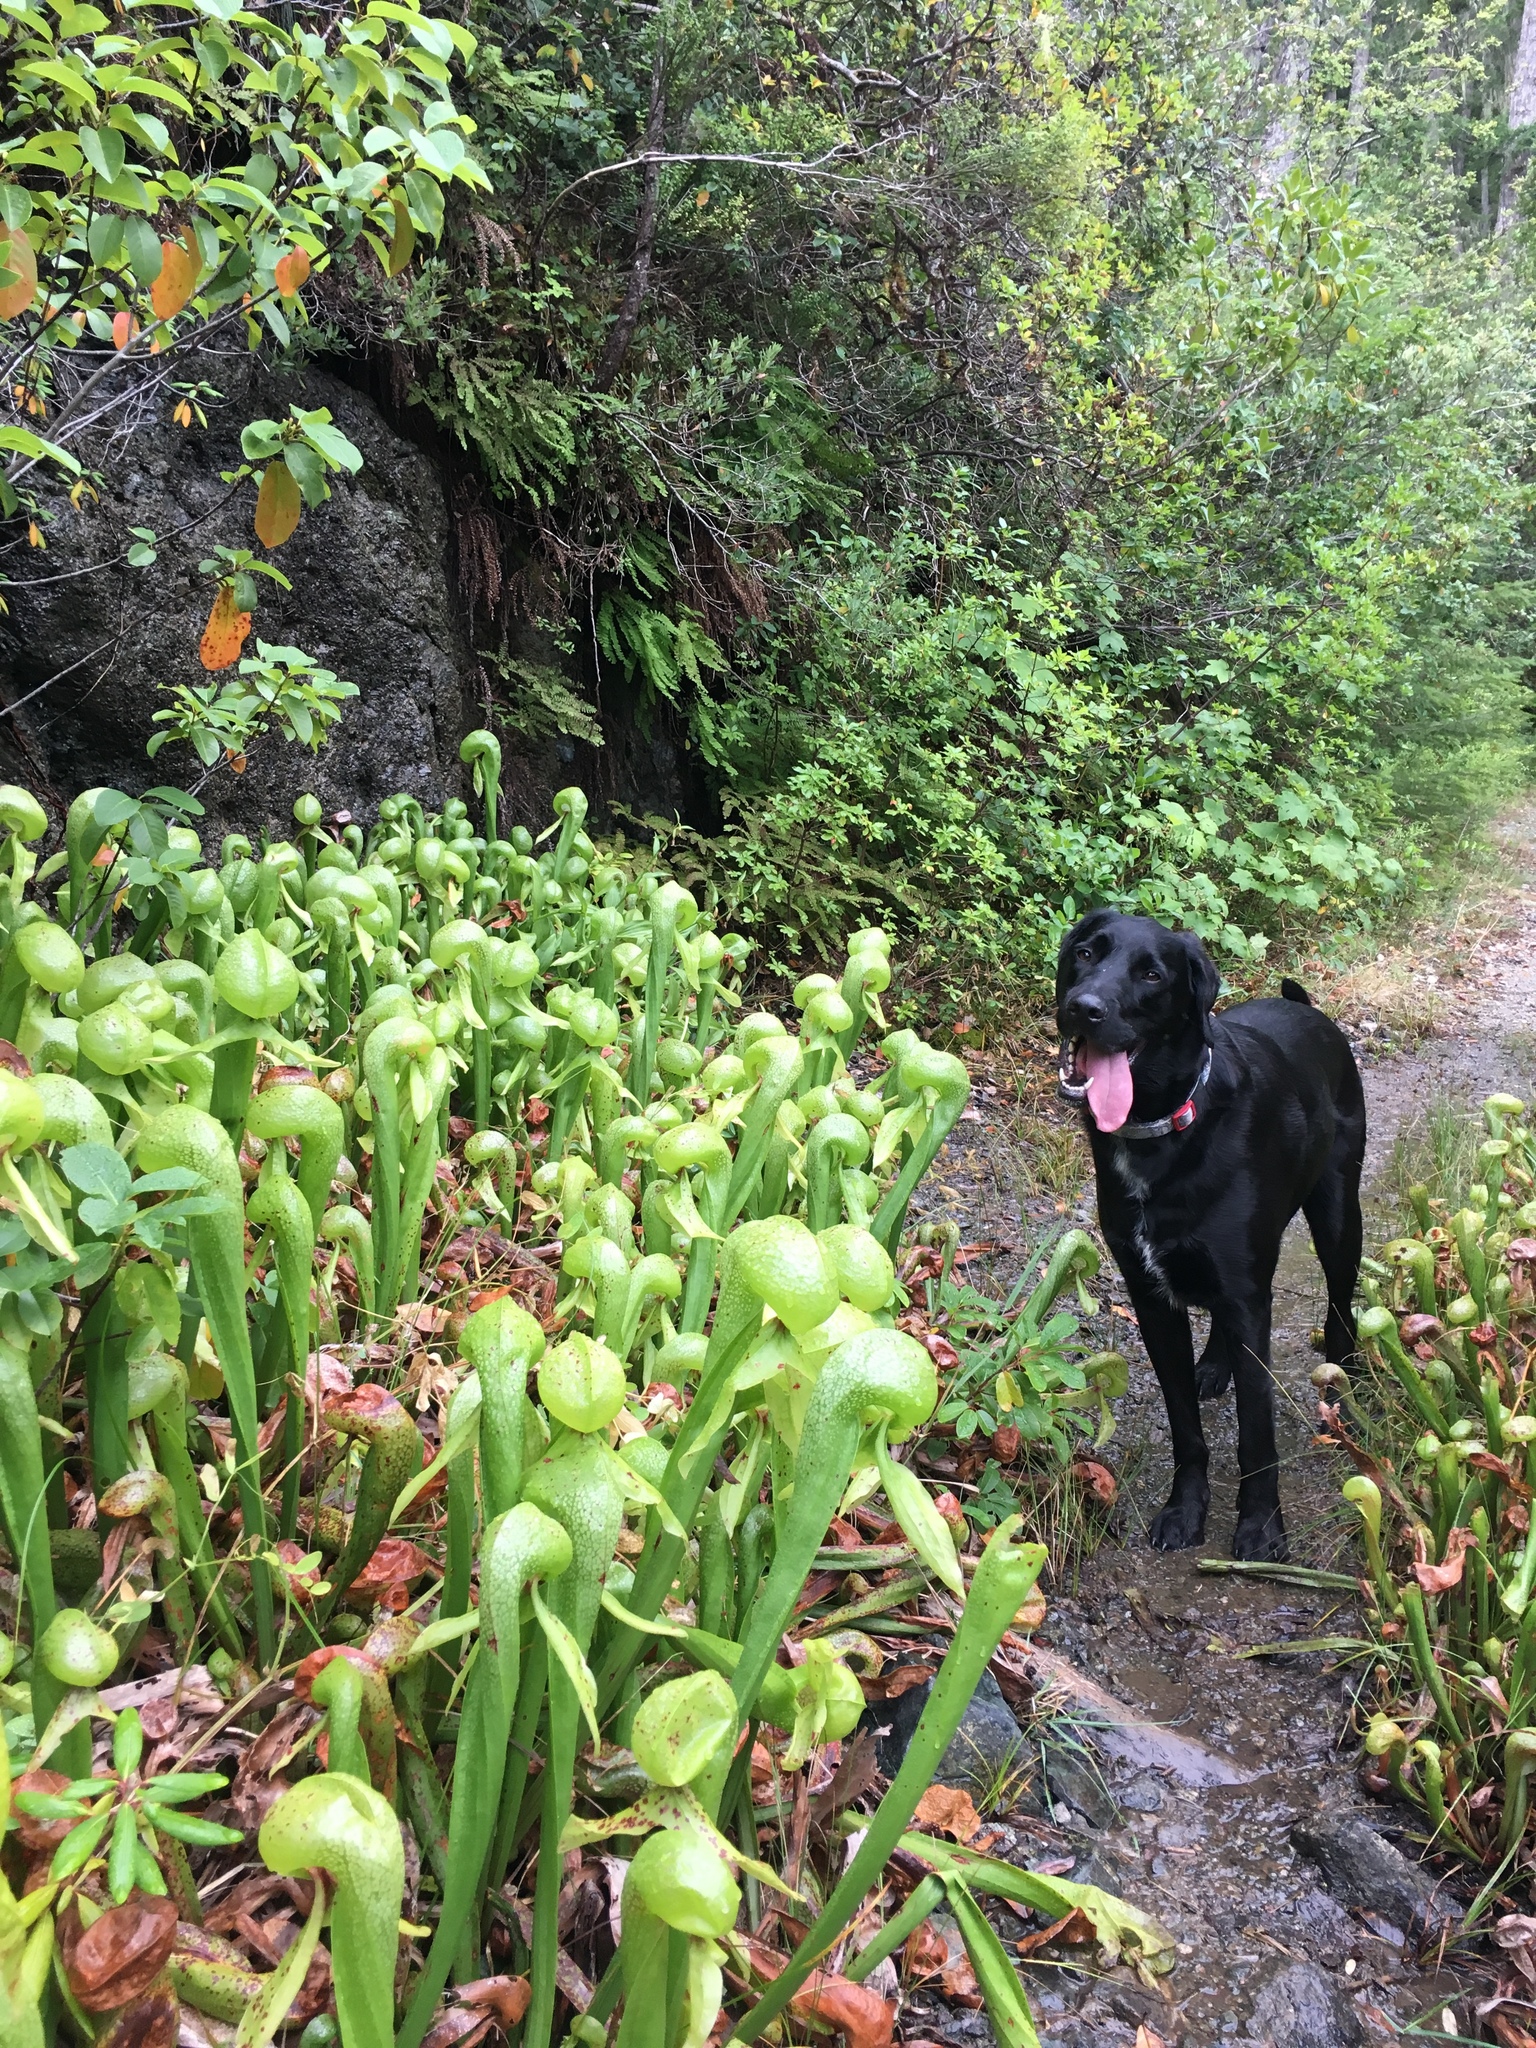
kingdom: Plantae
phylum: Tracheophyta
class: Magnoliopsida
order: Ericales
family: Sarraceniaceae
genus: Darlingtonia
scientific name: Darlingtonia californica
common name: California pitcher plant
